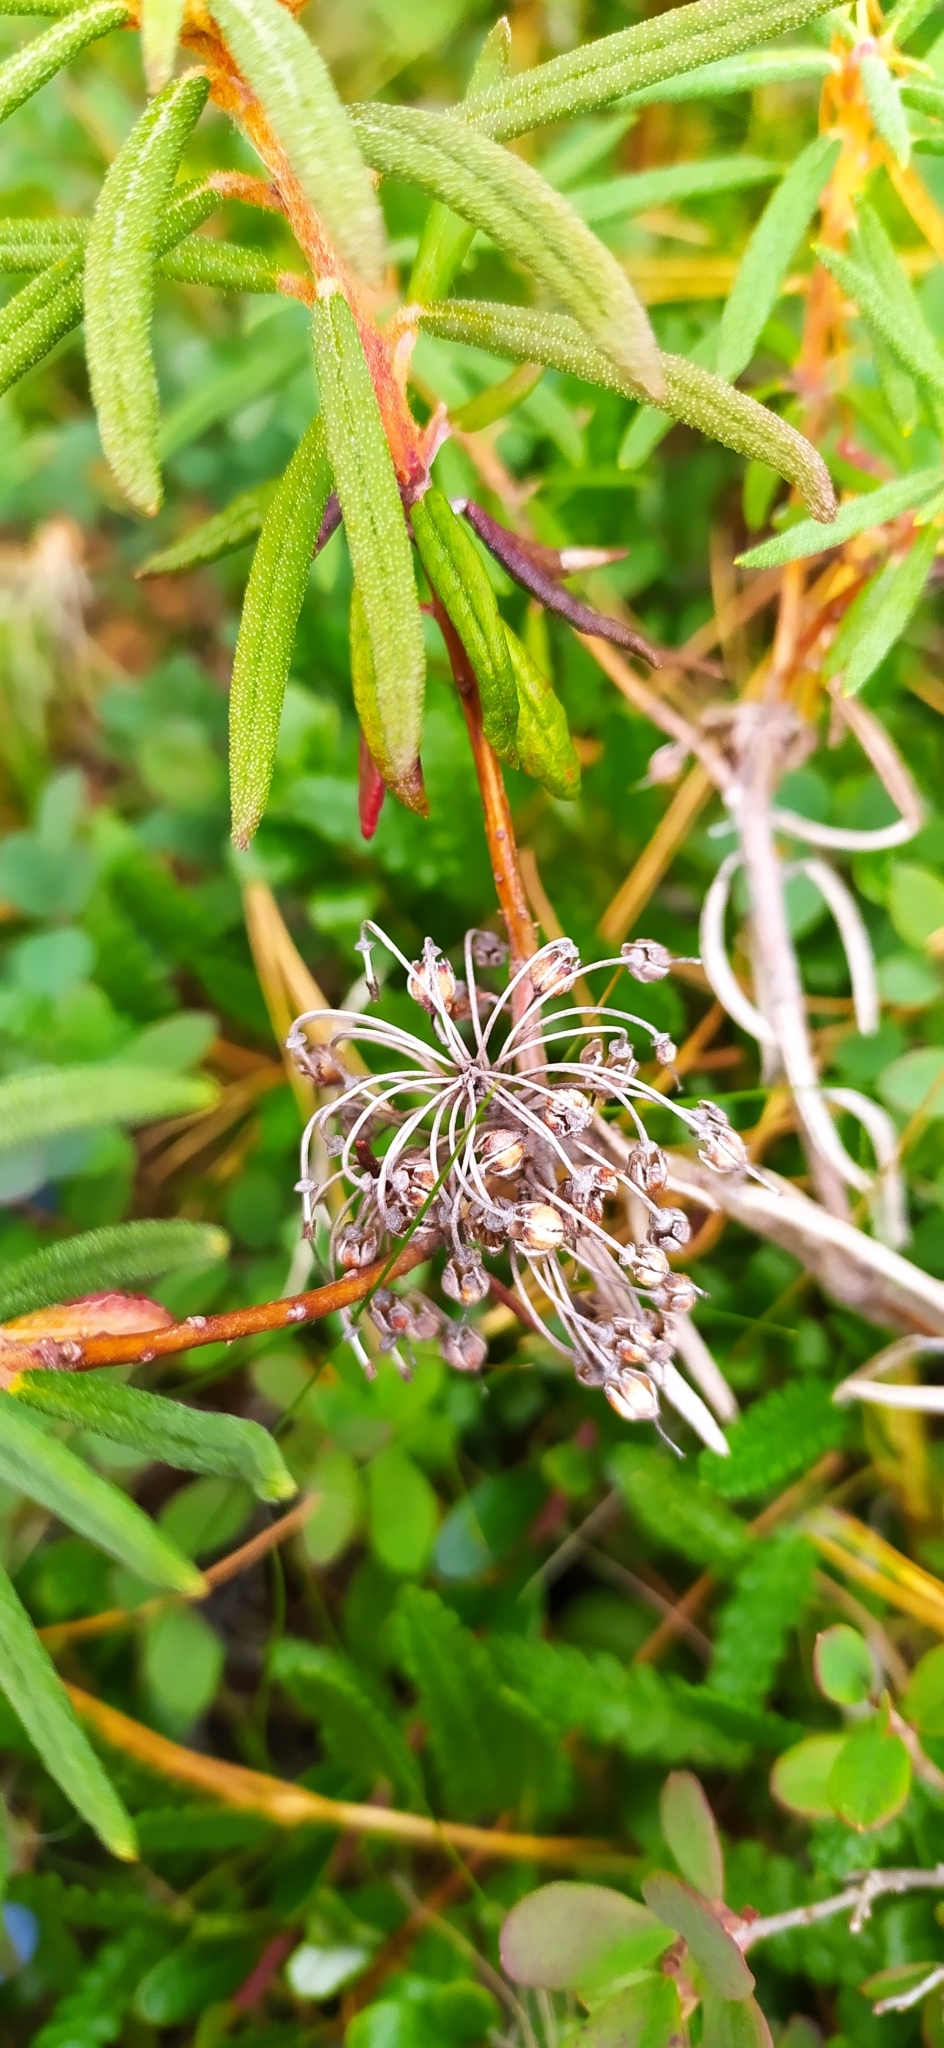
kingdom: Plantae
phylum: Tracheophyta
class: Magnoliopsida
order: Ericales
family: Ericaceae
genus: Rhododendron
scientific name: Rhododendron tomentosum
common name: Marsh labrador tea
